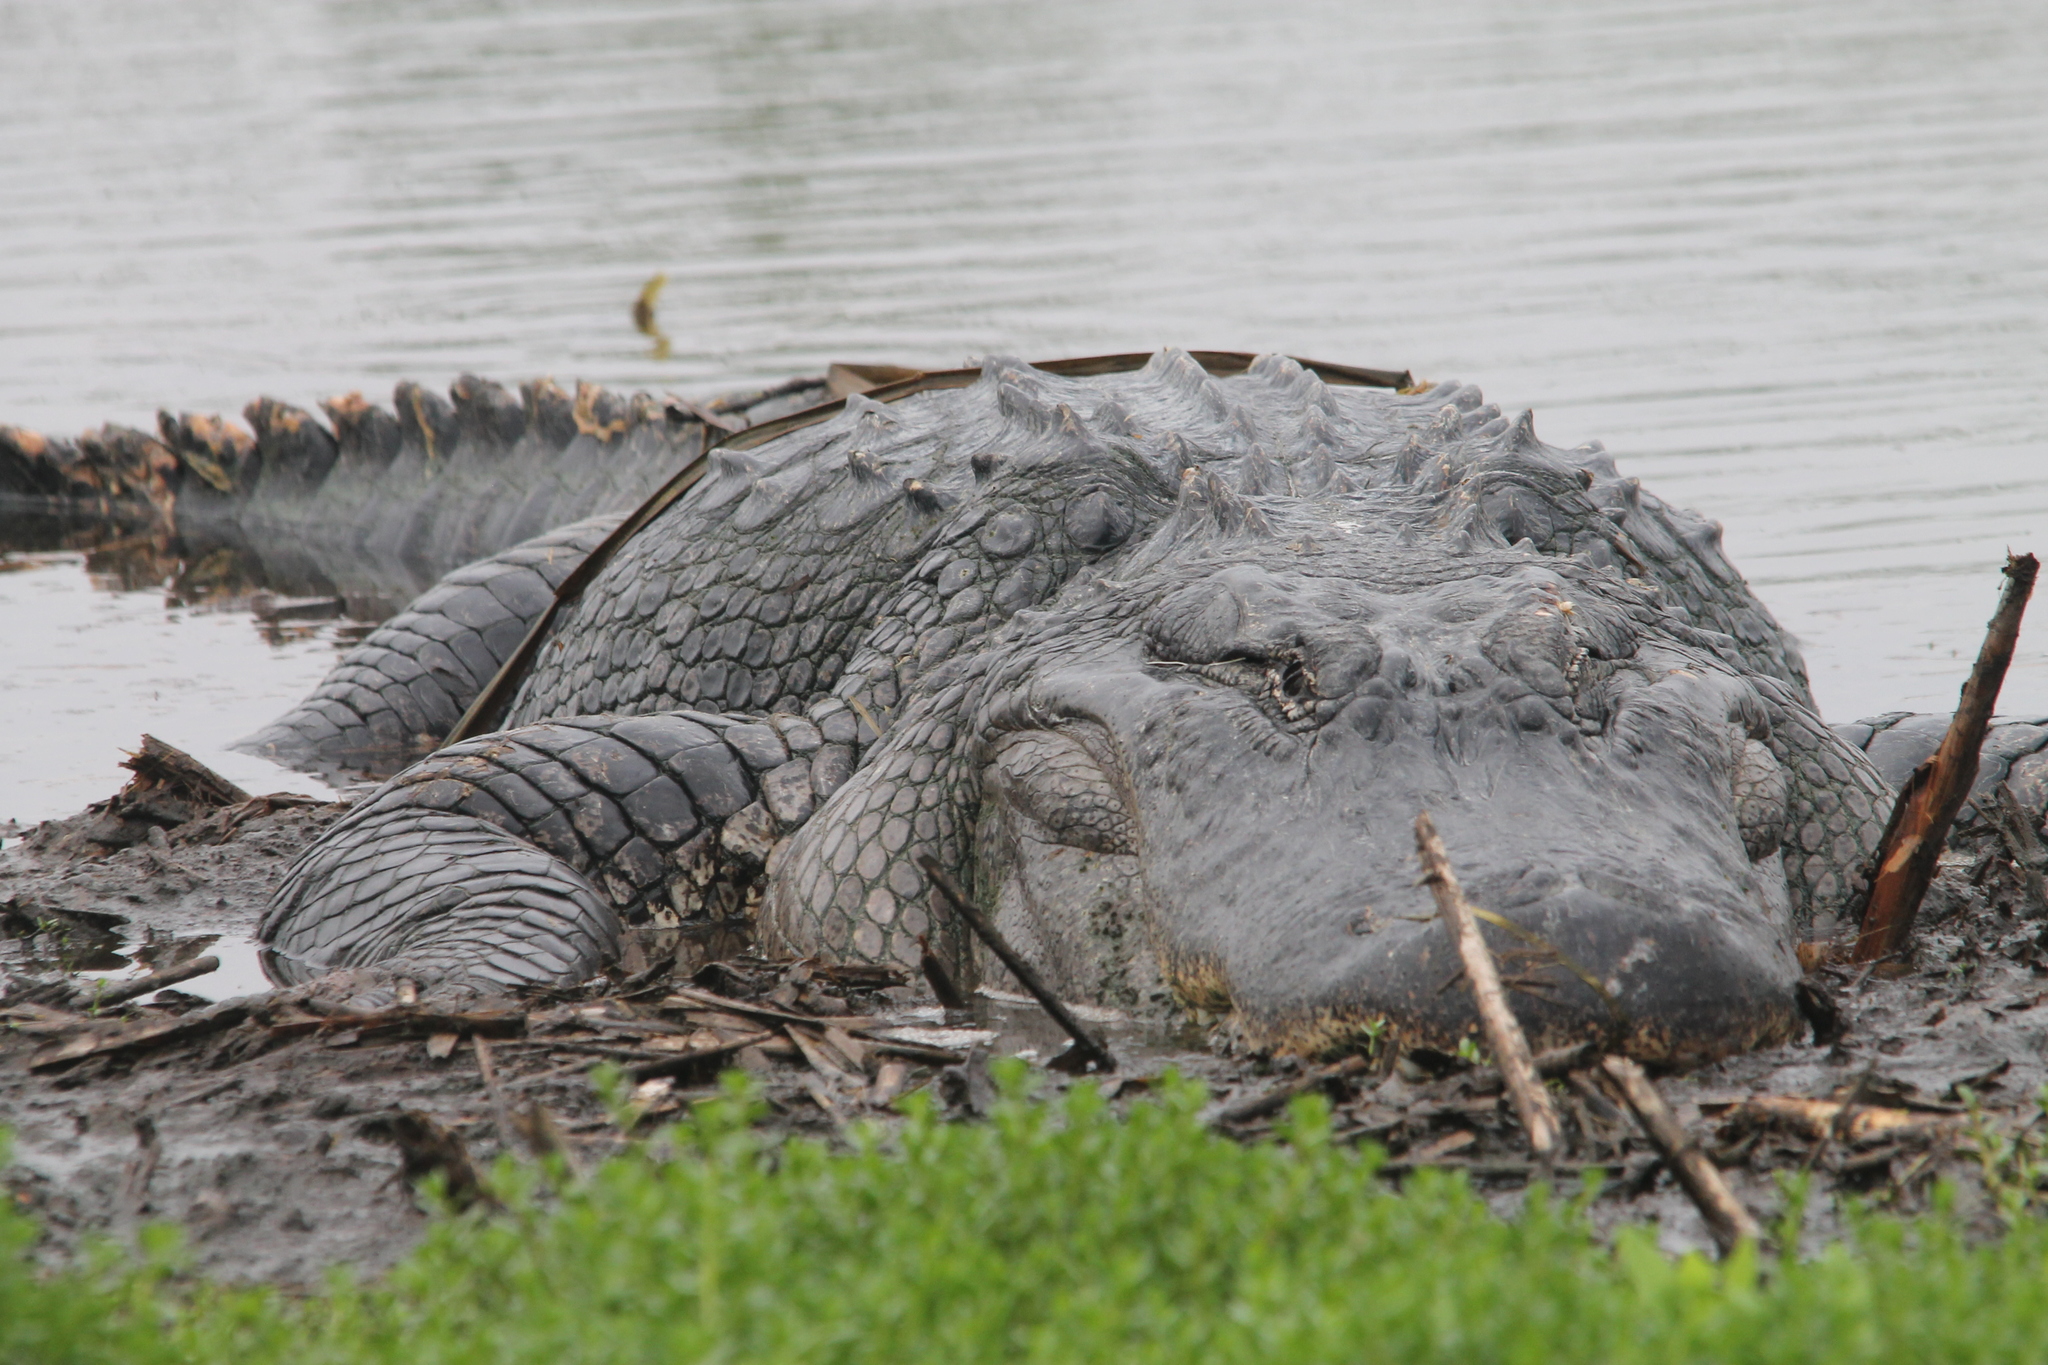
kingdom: Animalia
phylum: Chordata
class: Crocodylia
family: Alligatoridae
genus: Alligator
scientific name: Alligator mississippiensis
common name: American alligator
